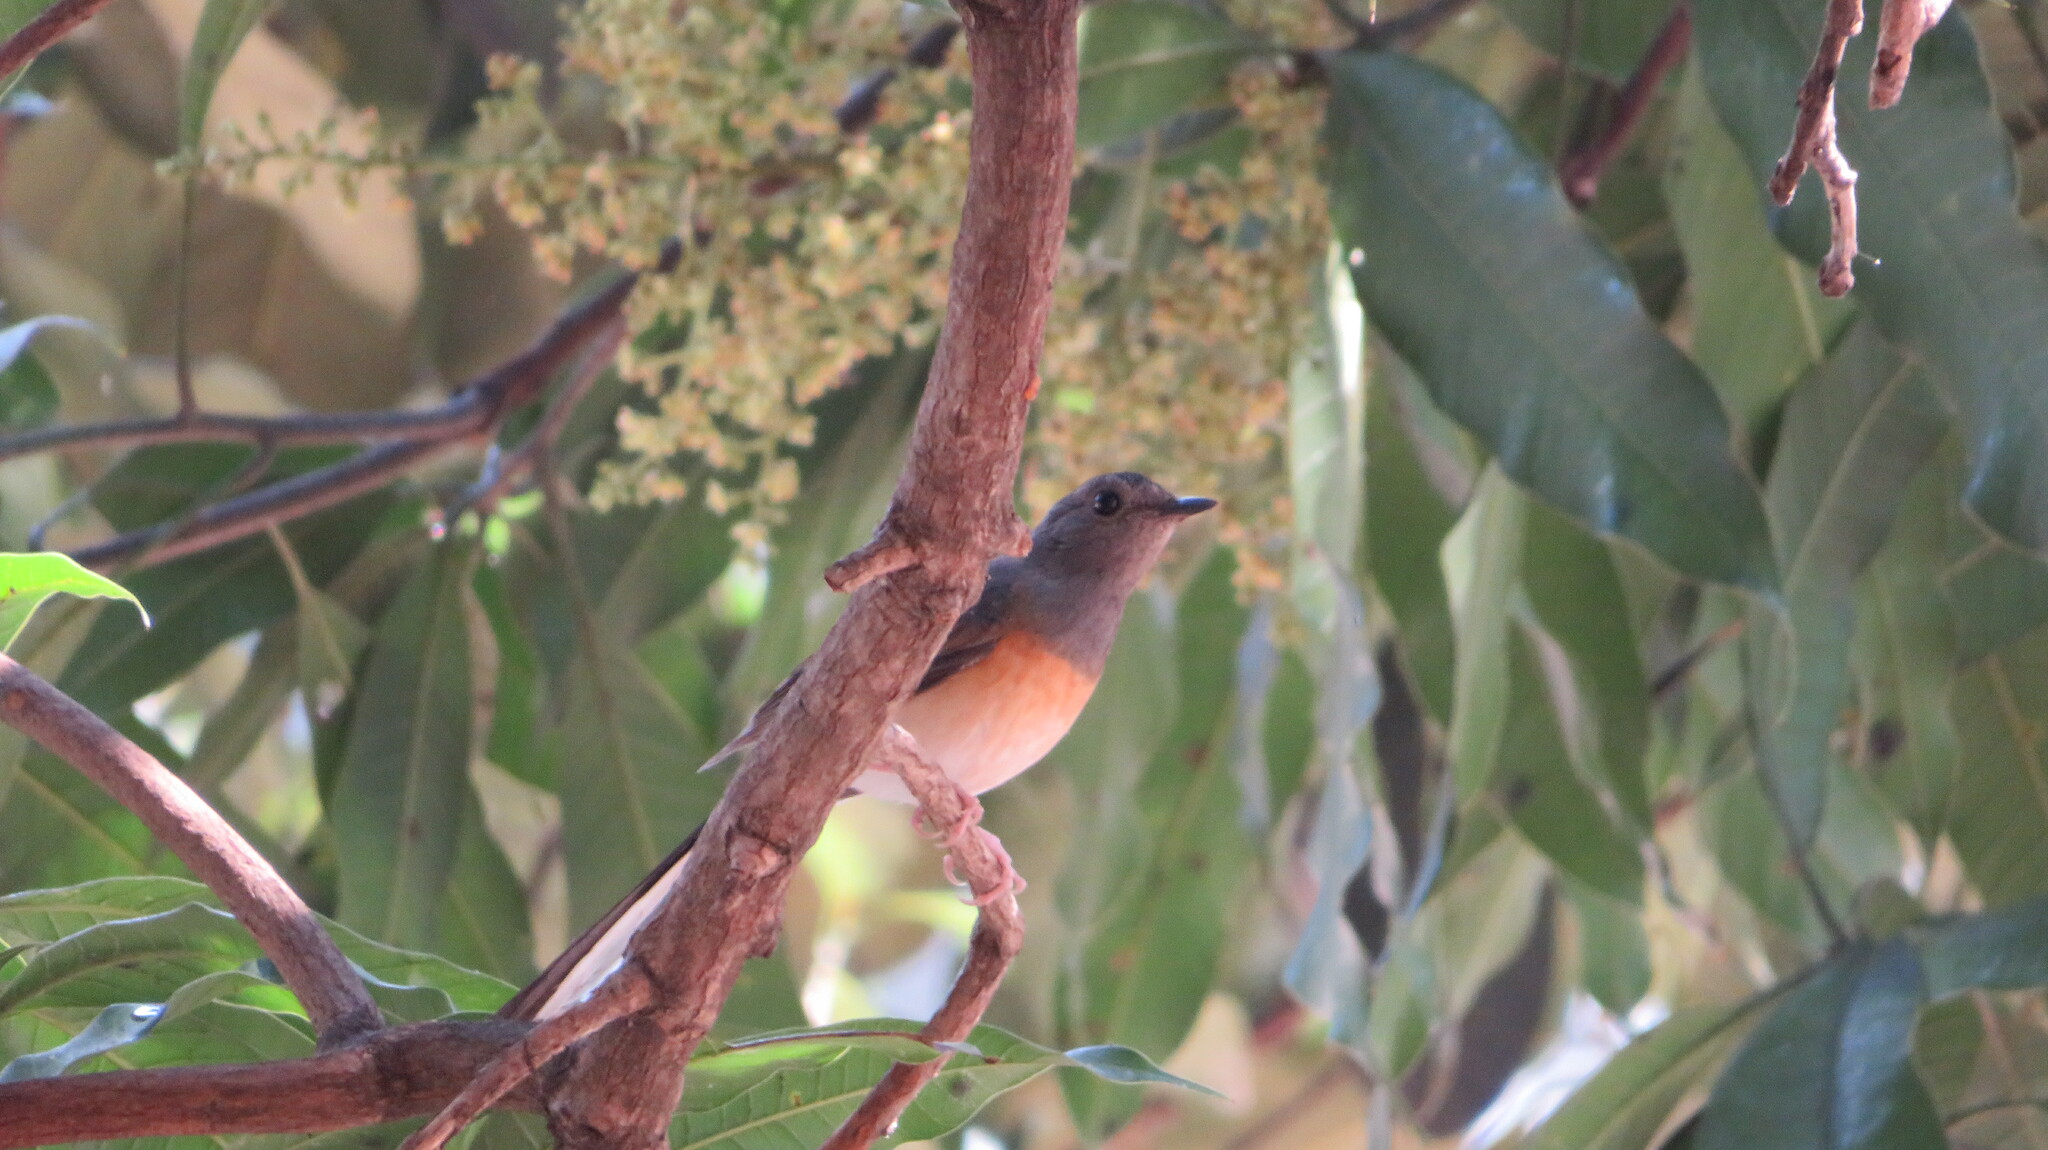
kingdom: Animalia
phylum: Chordata
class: Aves
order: Passeriformes
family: Muscicapidae
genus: Copsychus
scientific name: Copsychus malabaricus
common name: White-rumped shama
